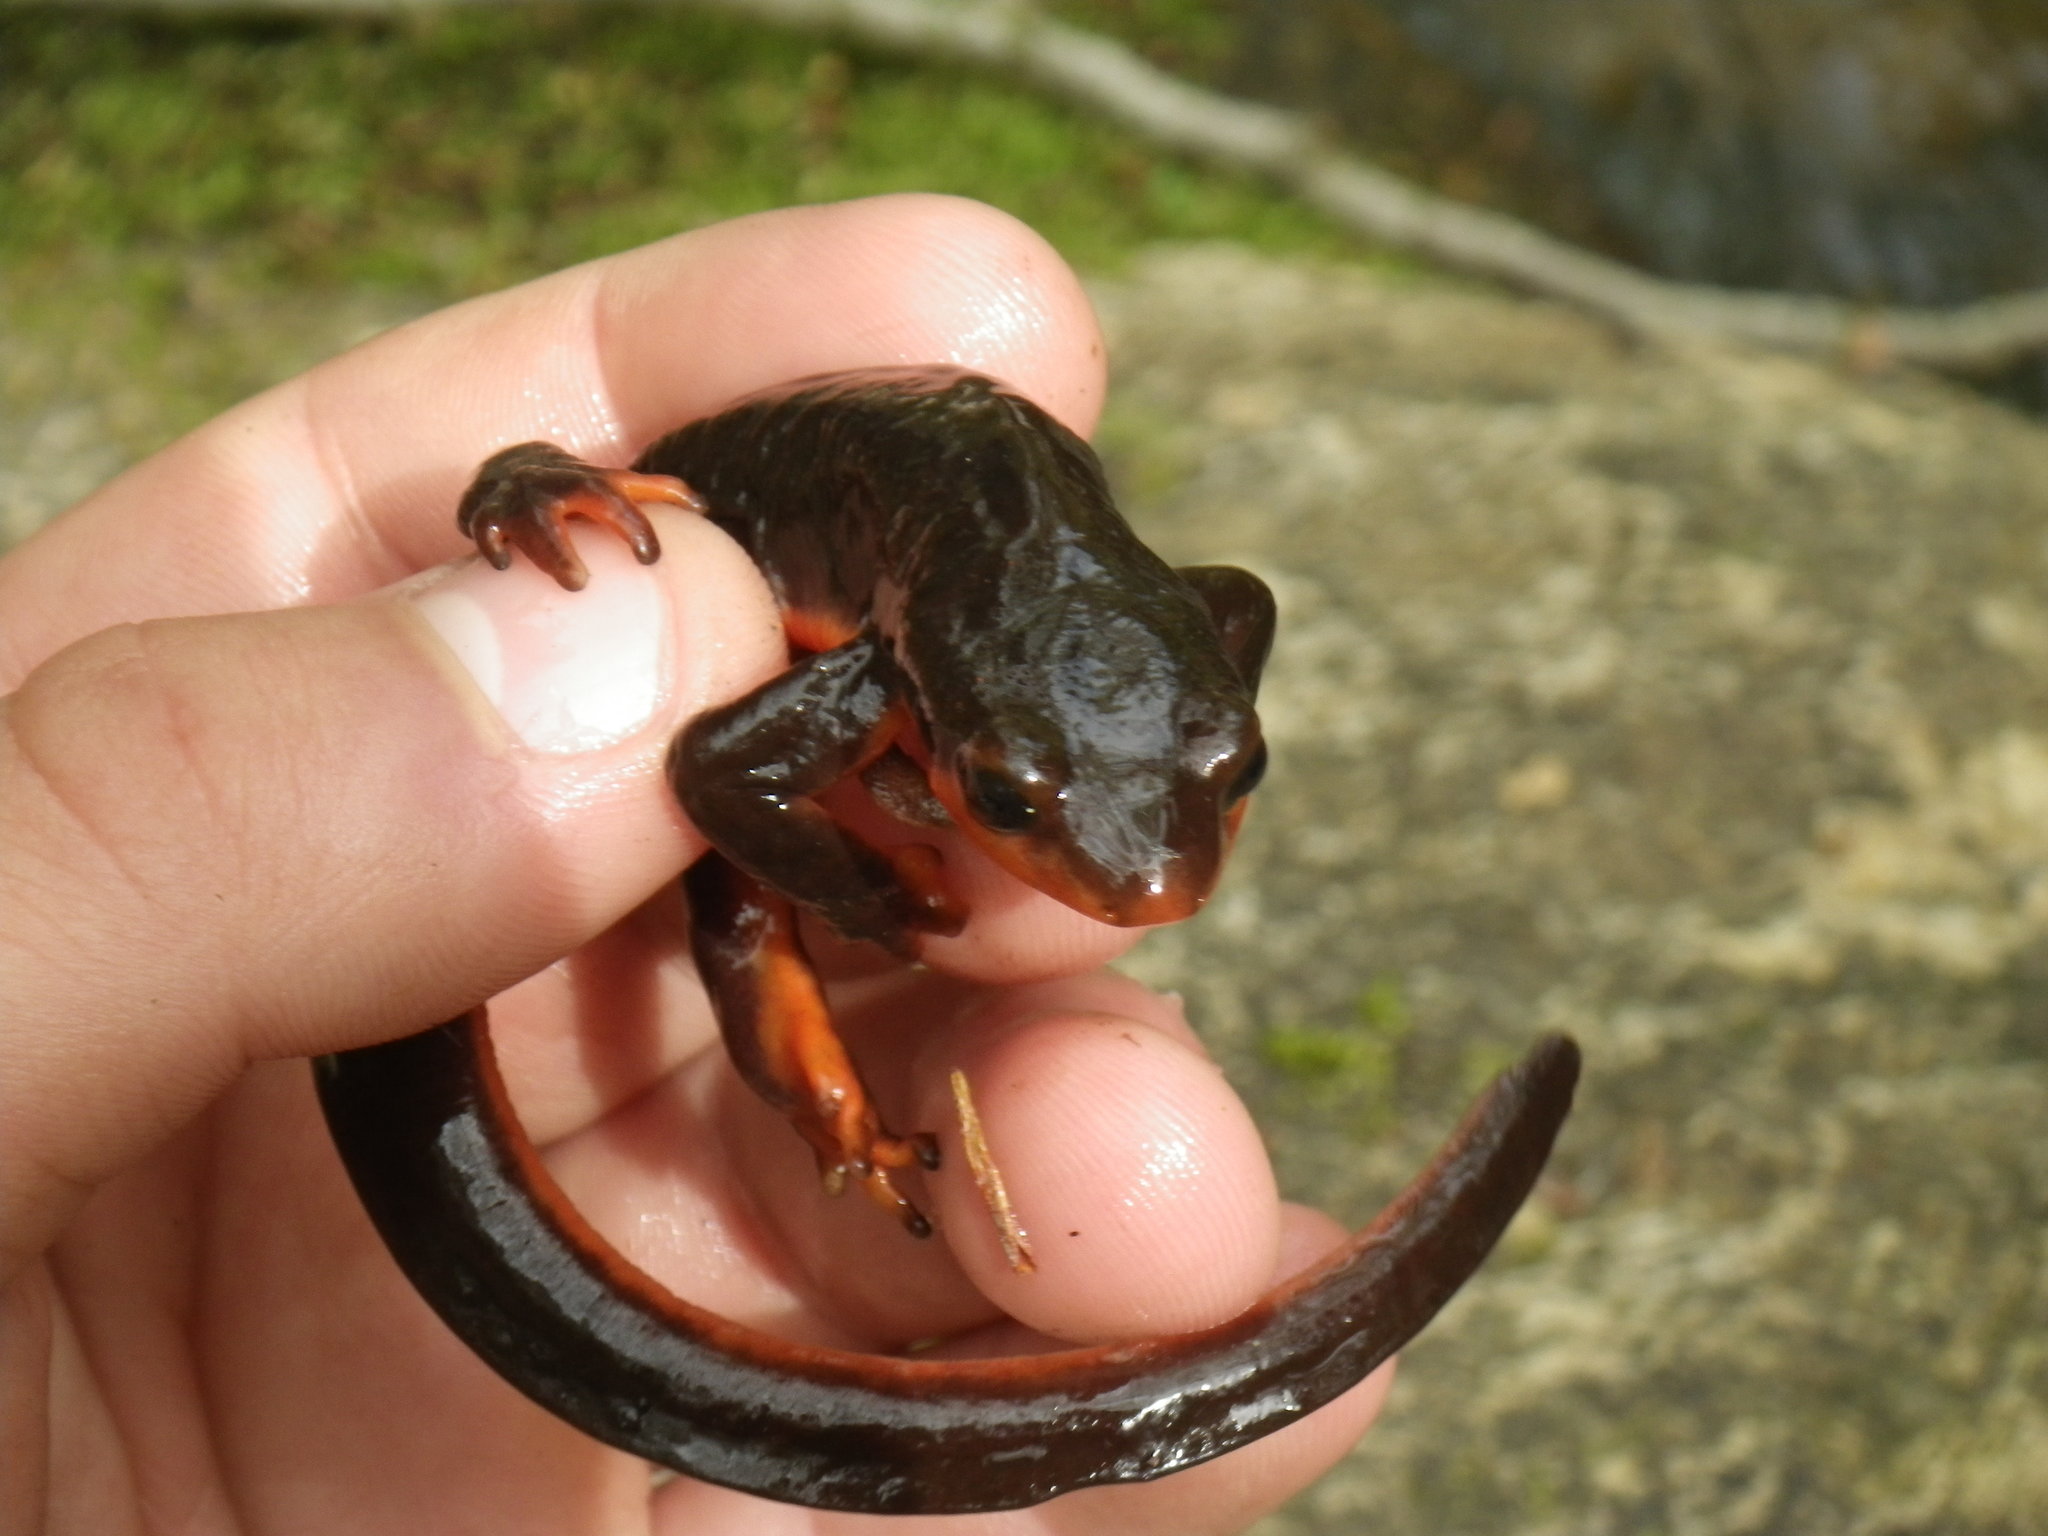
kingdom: Animalia
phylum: Chordata
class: Amphibia
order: Caudata
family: Salamandridae
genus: Taricha
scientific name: Taricha rivularis
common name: Red-bellied newt
